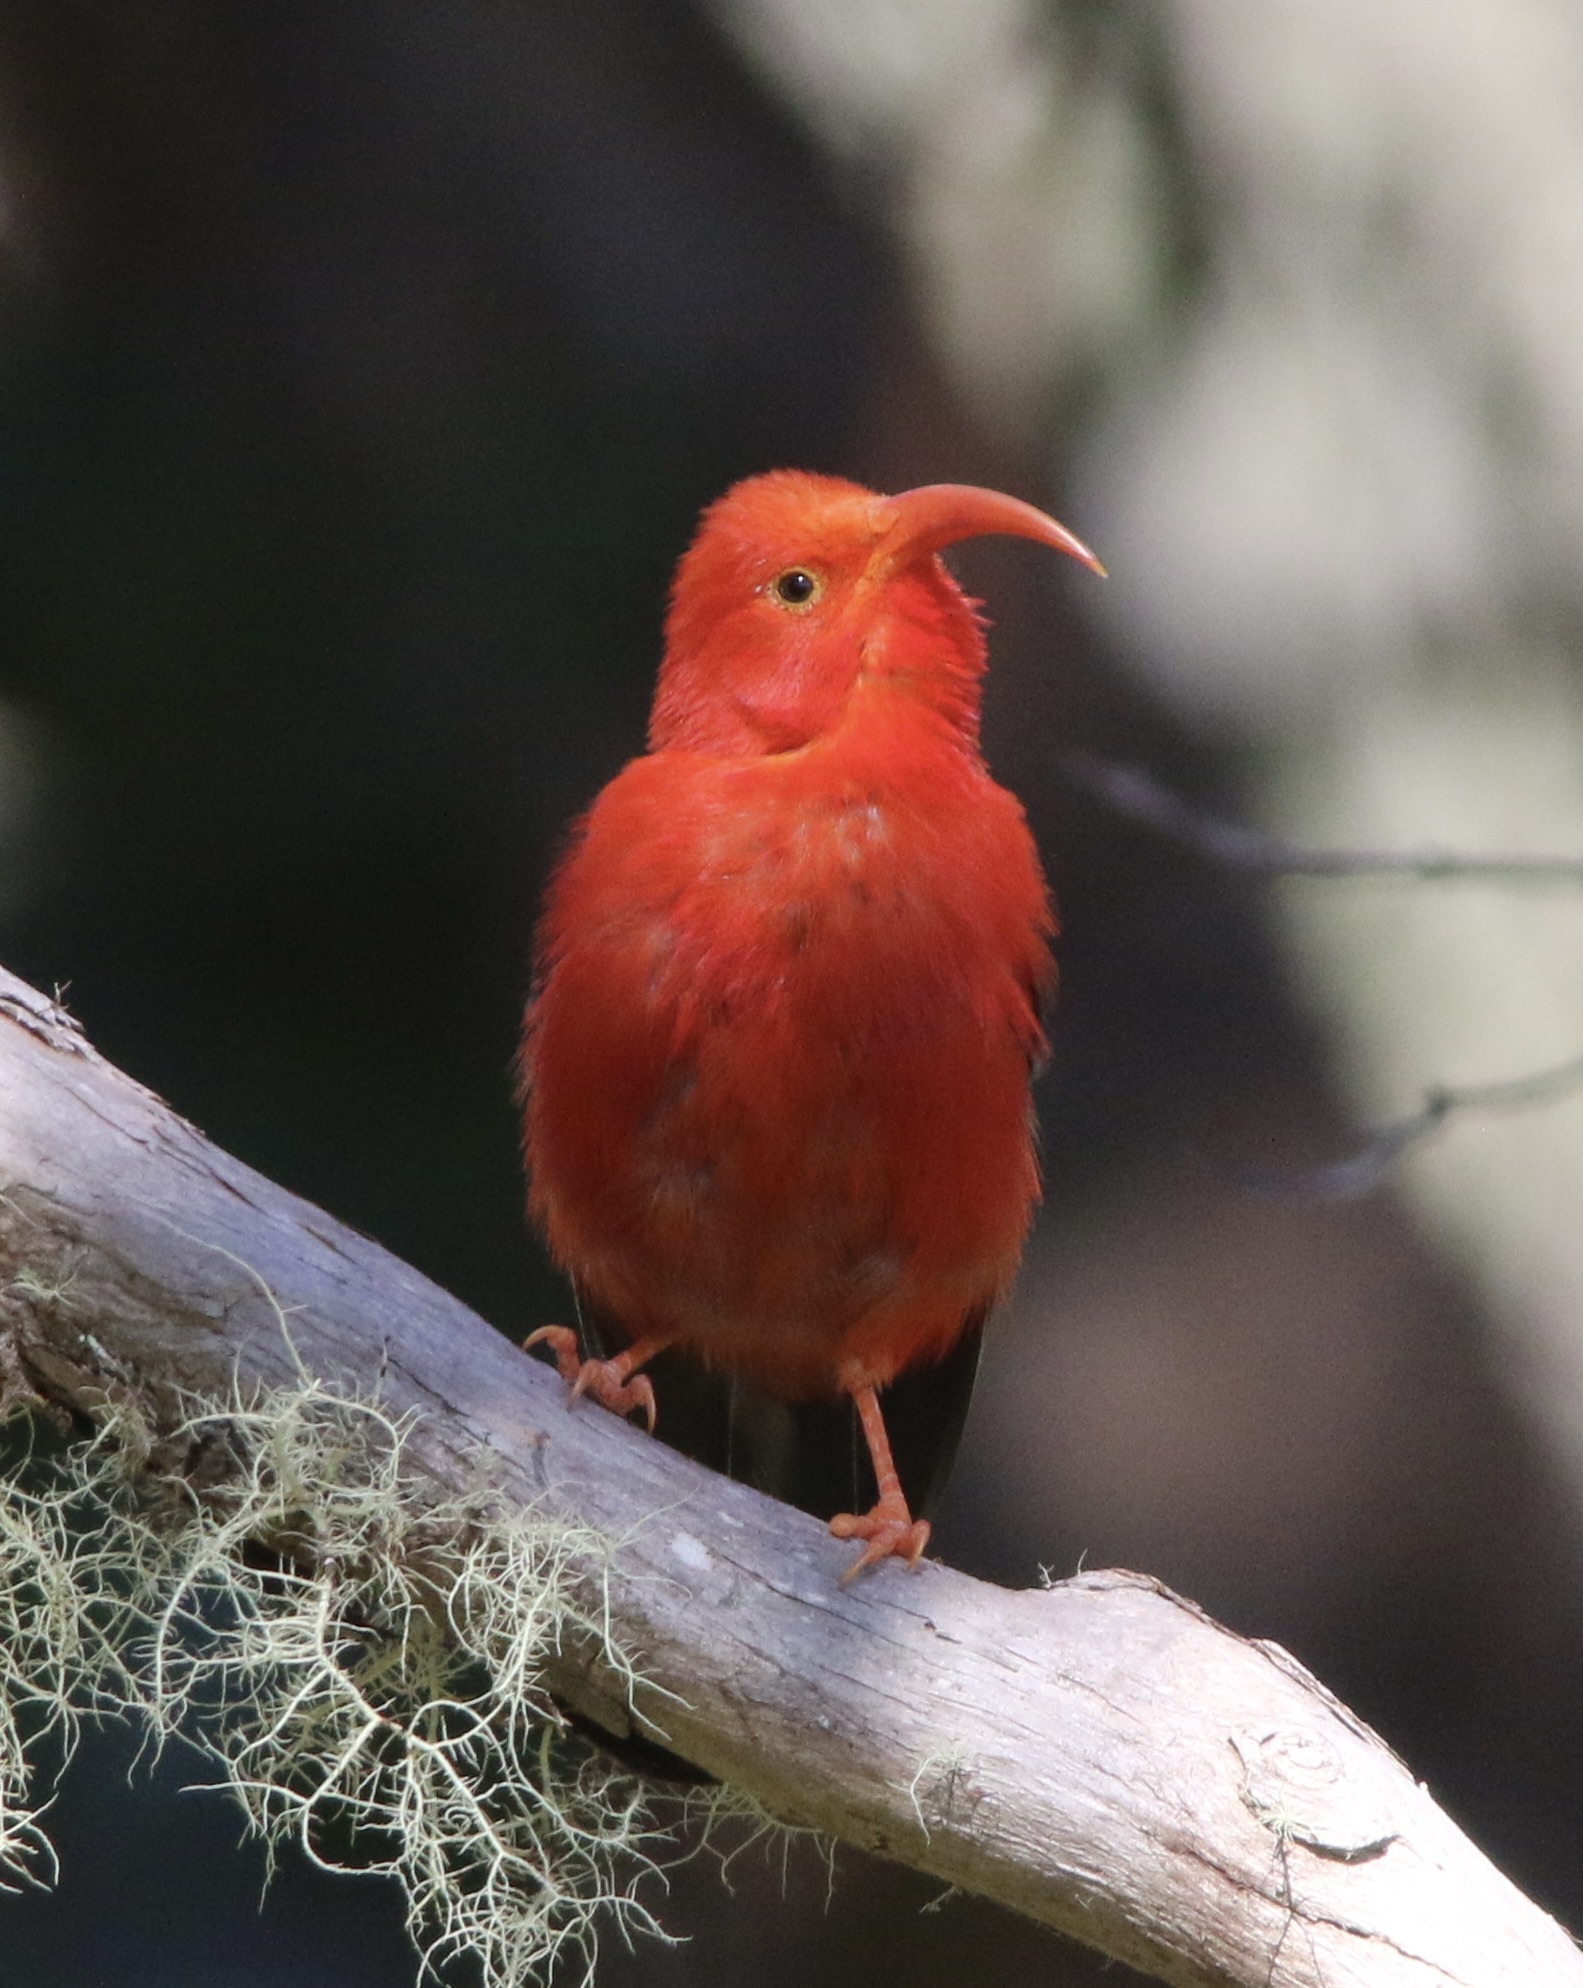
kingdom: Animalia
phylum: Chordata
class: Aves
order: Passeriformes
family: Fringillidae
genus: Vestiaria
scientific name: Vestiaria coccinea
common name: Iiwi
